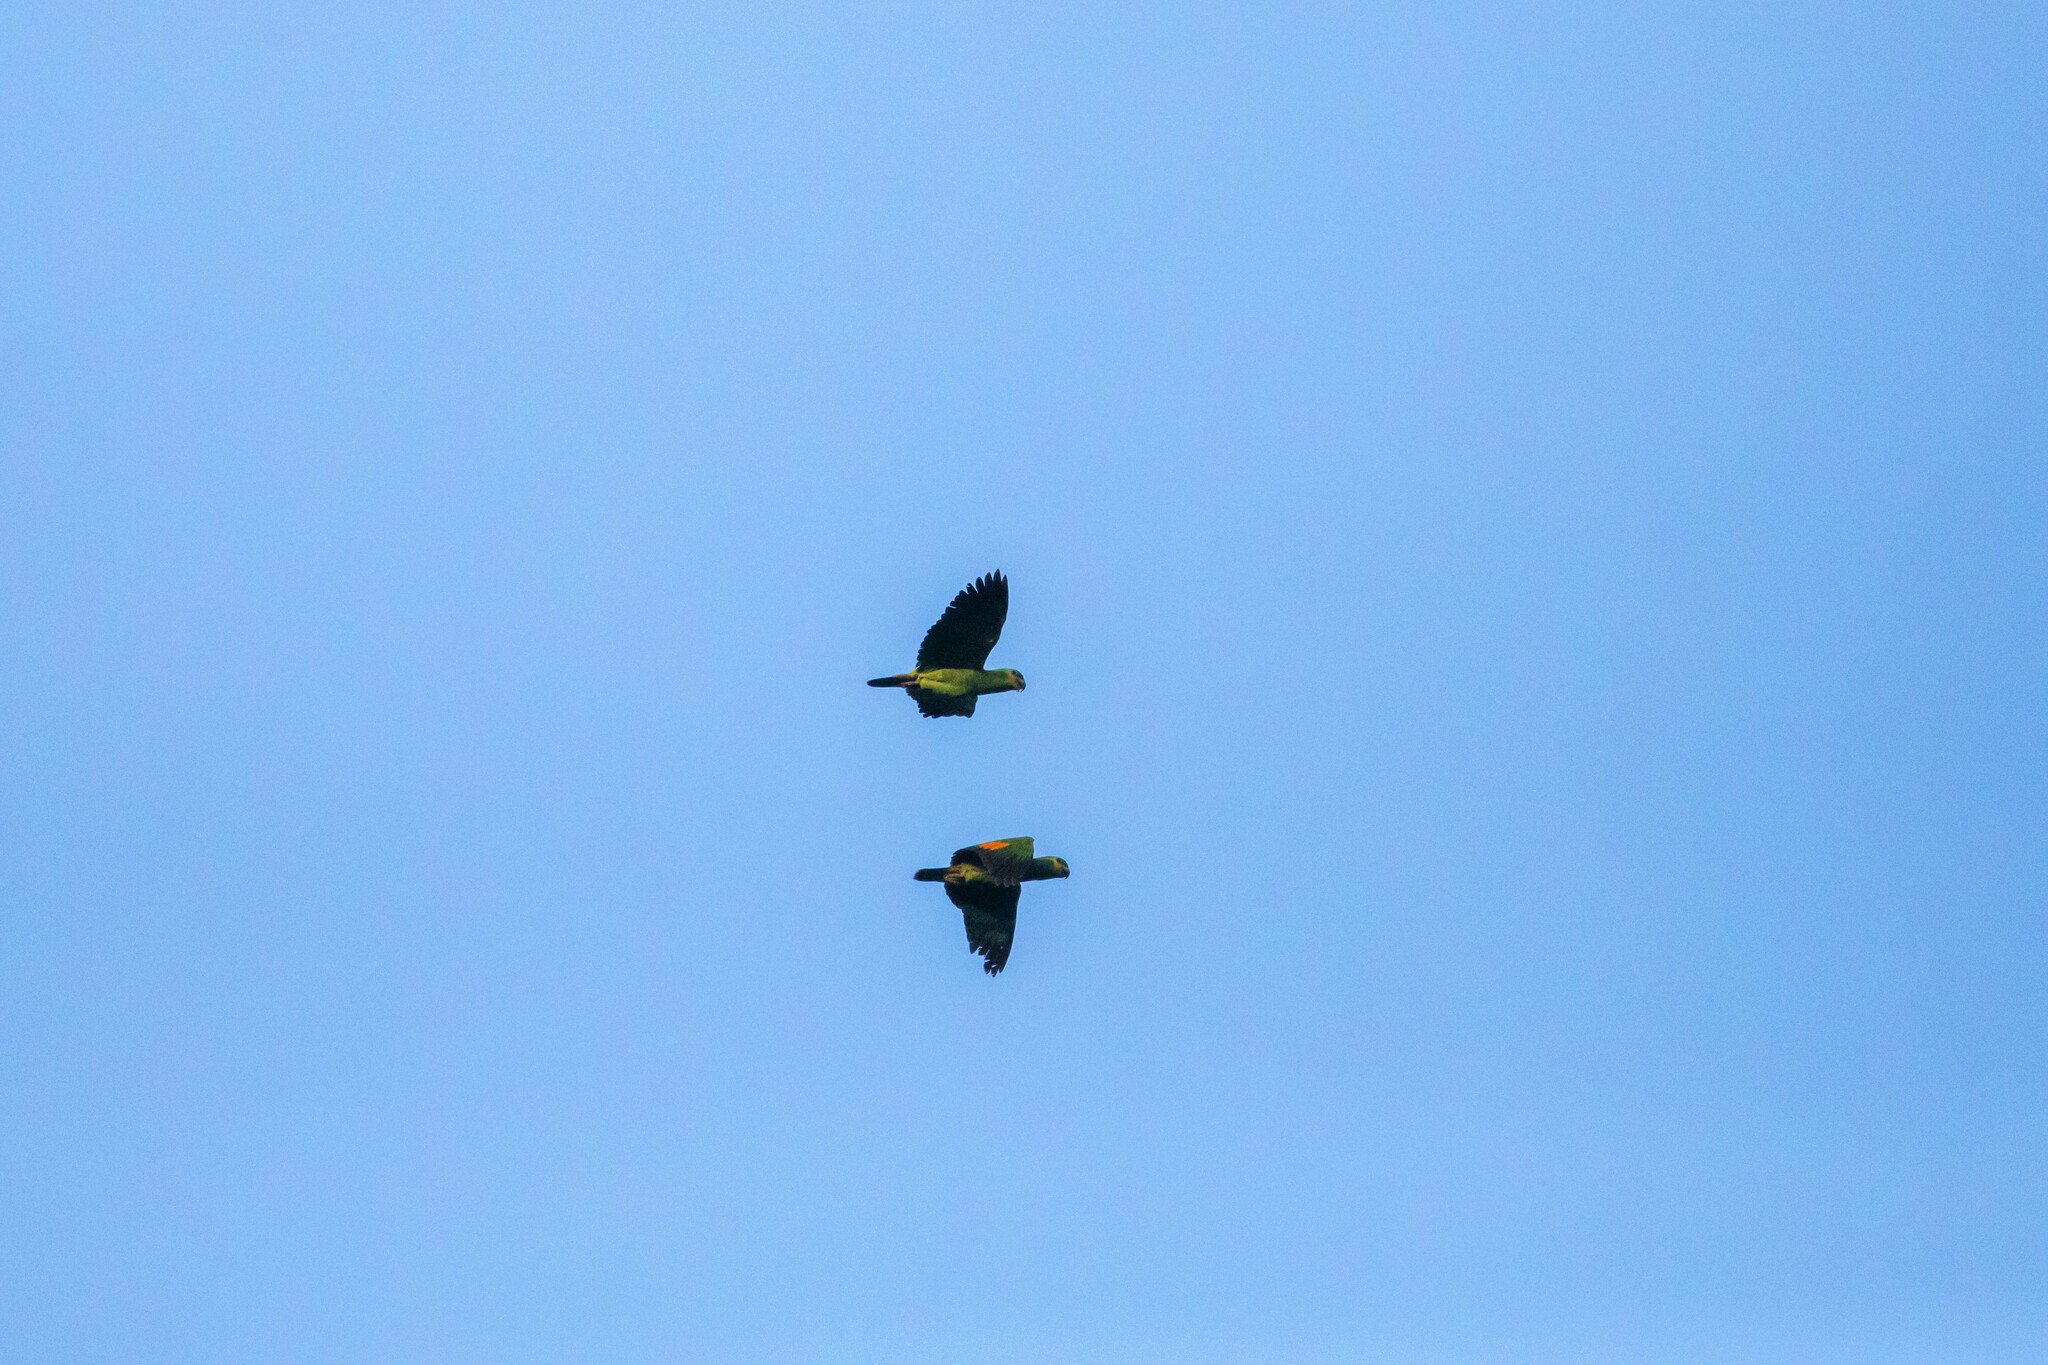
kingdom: Animalia
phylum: Chordata
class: Aves
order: Psittaciformes
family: Psittacidae
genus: Amazona
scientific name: Amazona amazonica
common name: Orange-winged amazon
